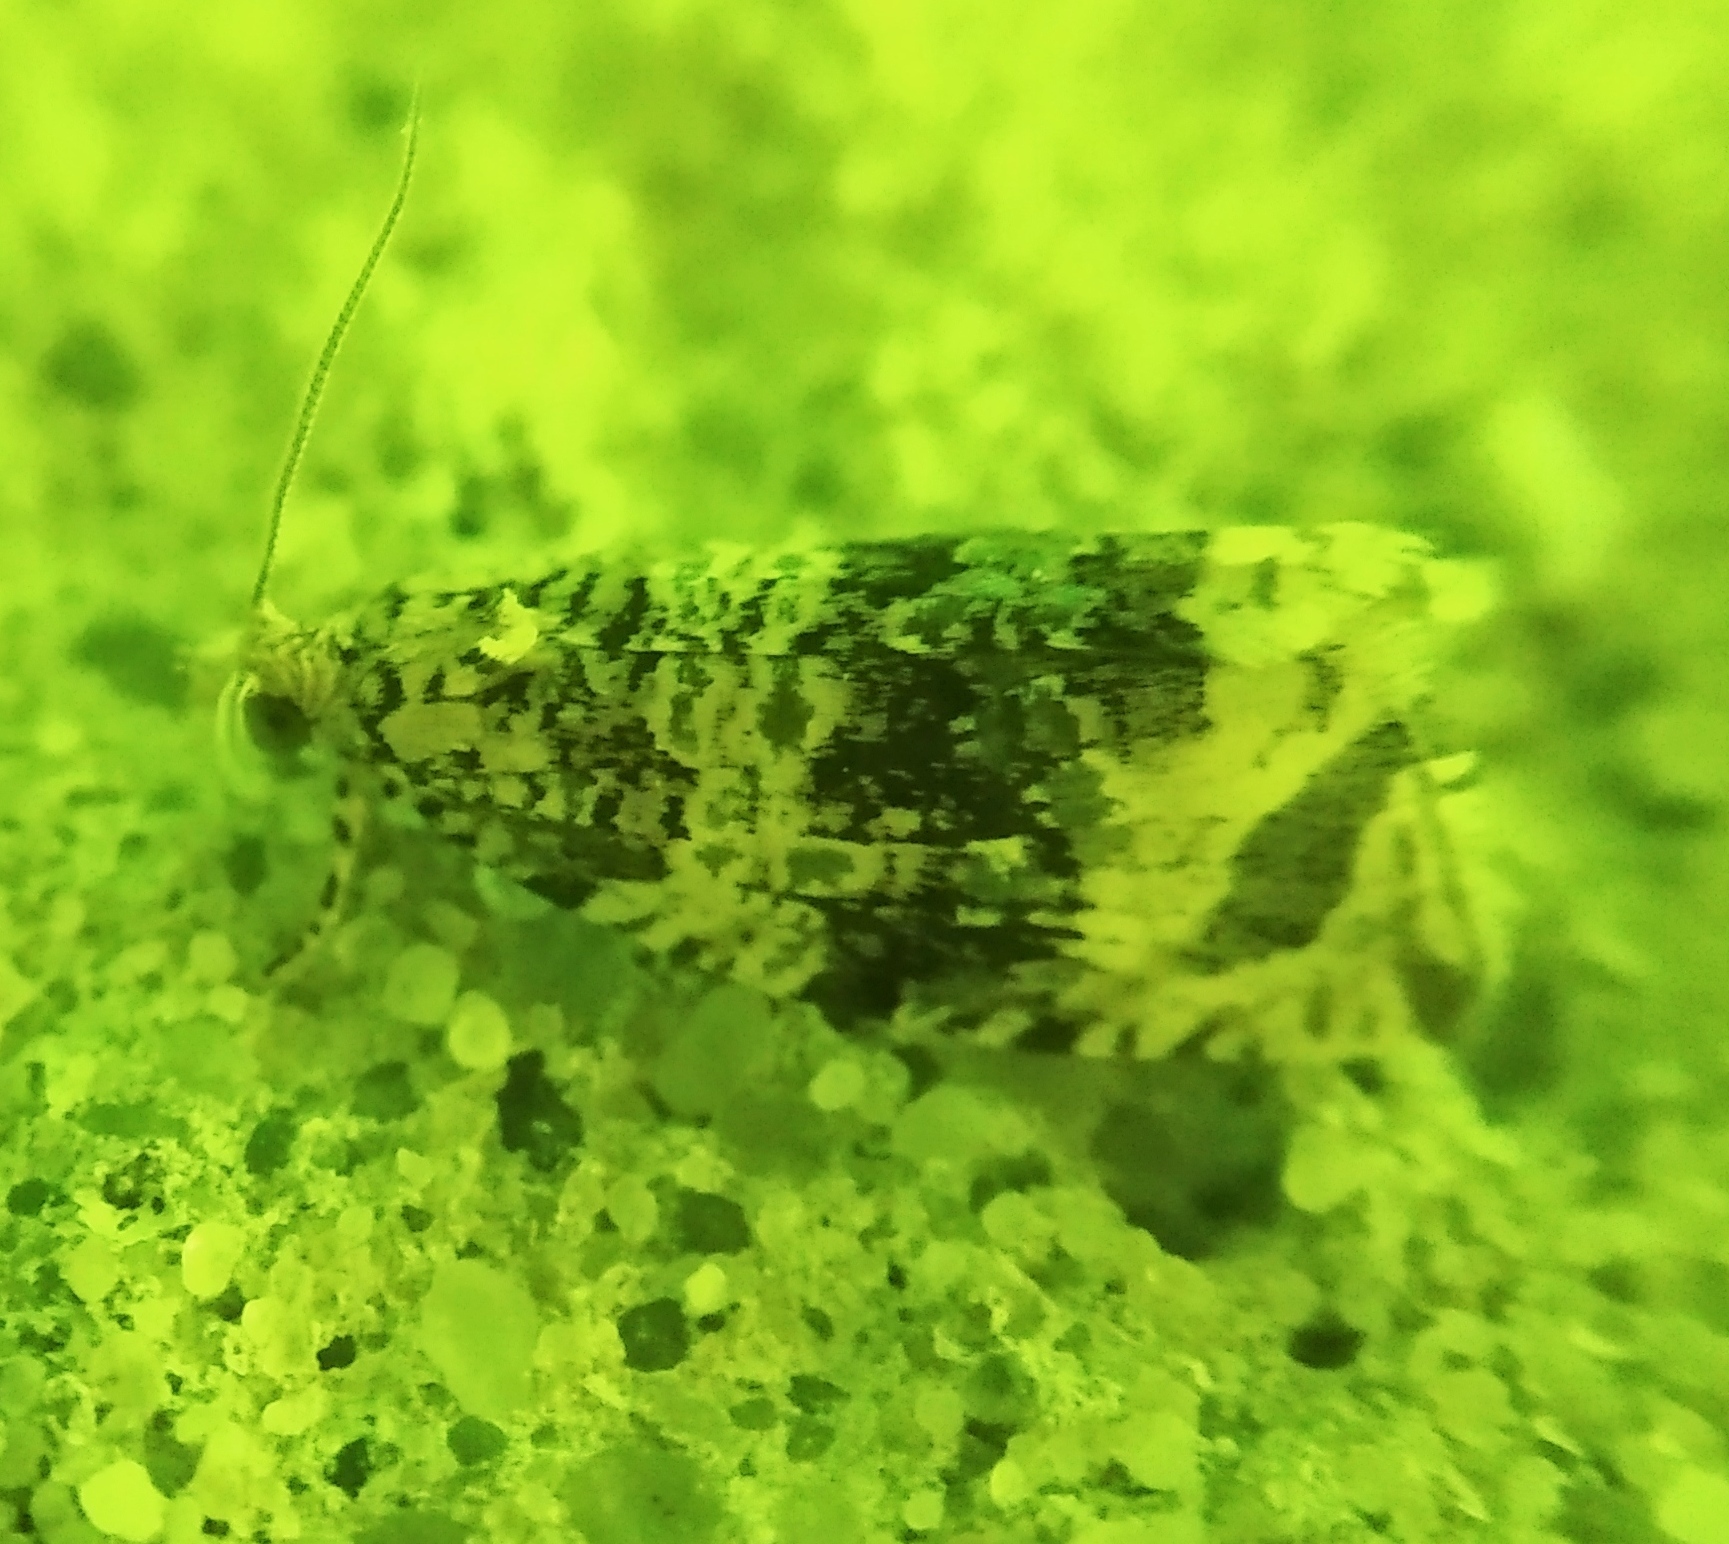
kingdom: Animalia
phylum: Arthropoda
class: Insecta
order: Lepidoptera
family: Tortricidae
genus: Syricoris
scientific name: Syricoris lacunana
